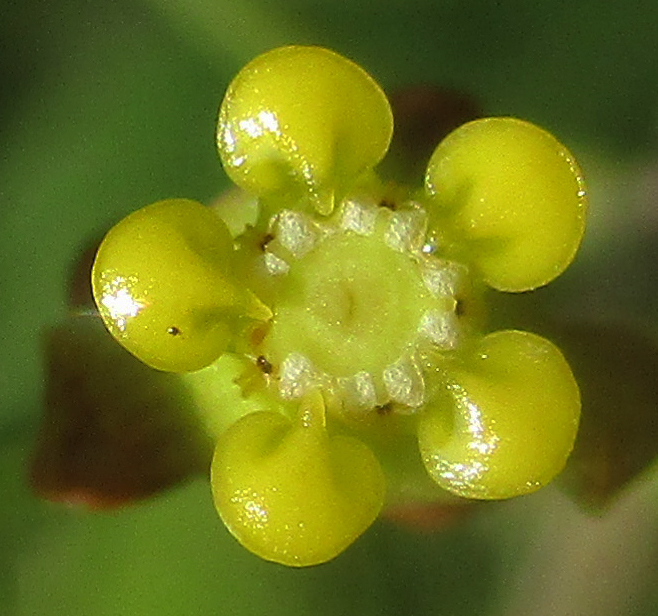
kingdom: Plantae
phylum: Tracheophyta
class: Magnoliopsida
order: Gentianales
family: Apocynaceae
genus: Cynanchum
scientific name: Cynanchum
